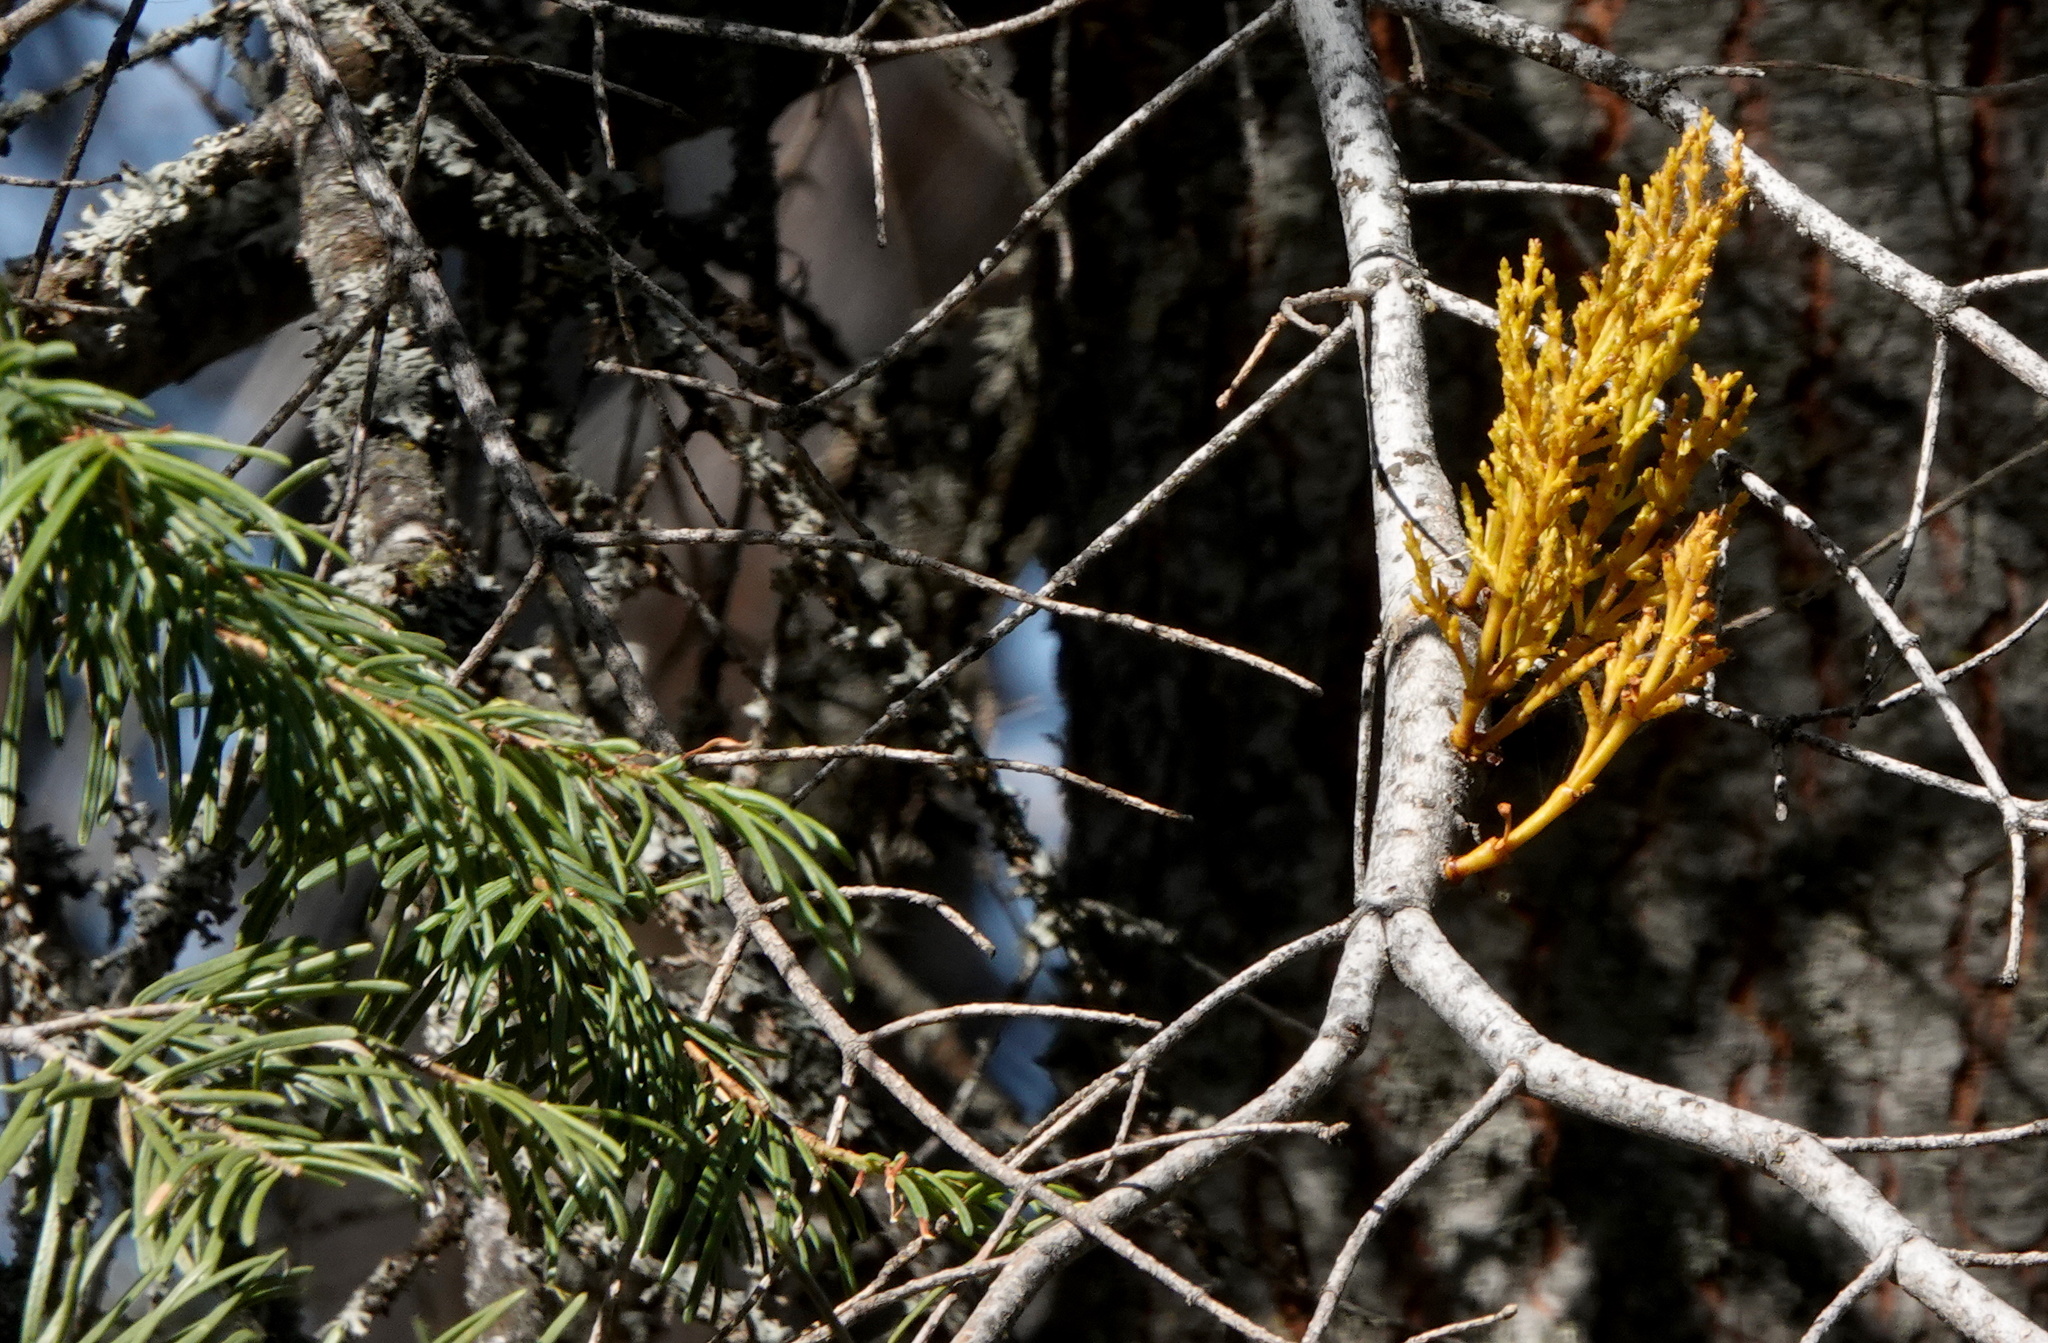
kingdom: Plantae
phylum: Tracheophyta
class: Magnoliopsida
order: Santalales
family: Viscaceae
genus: Arceuthobium
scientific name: Arceuthobium abietinum
